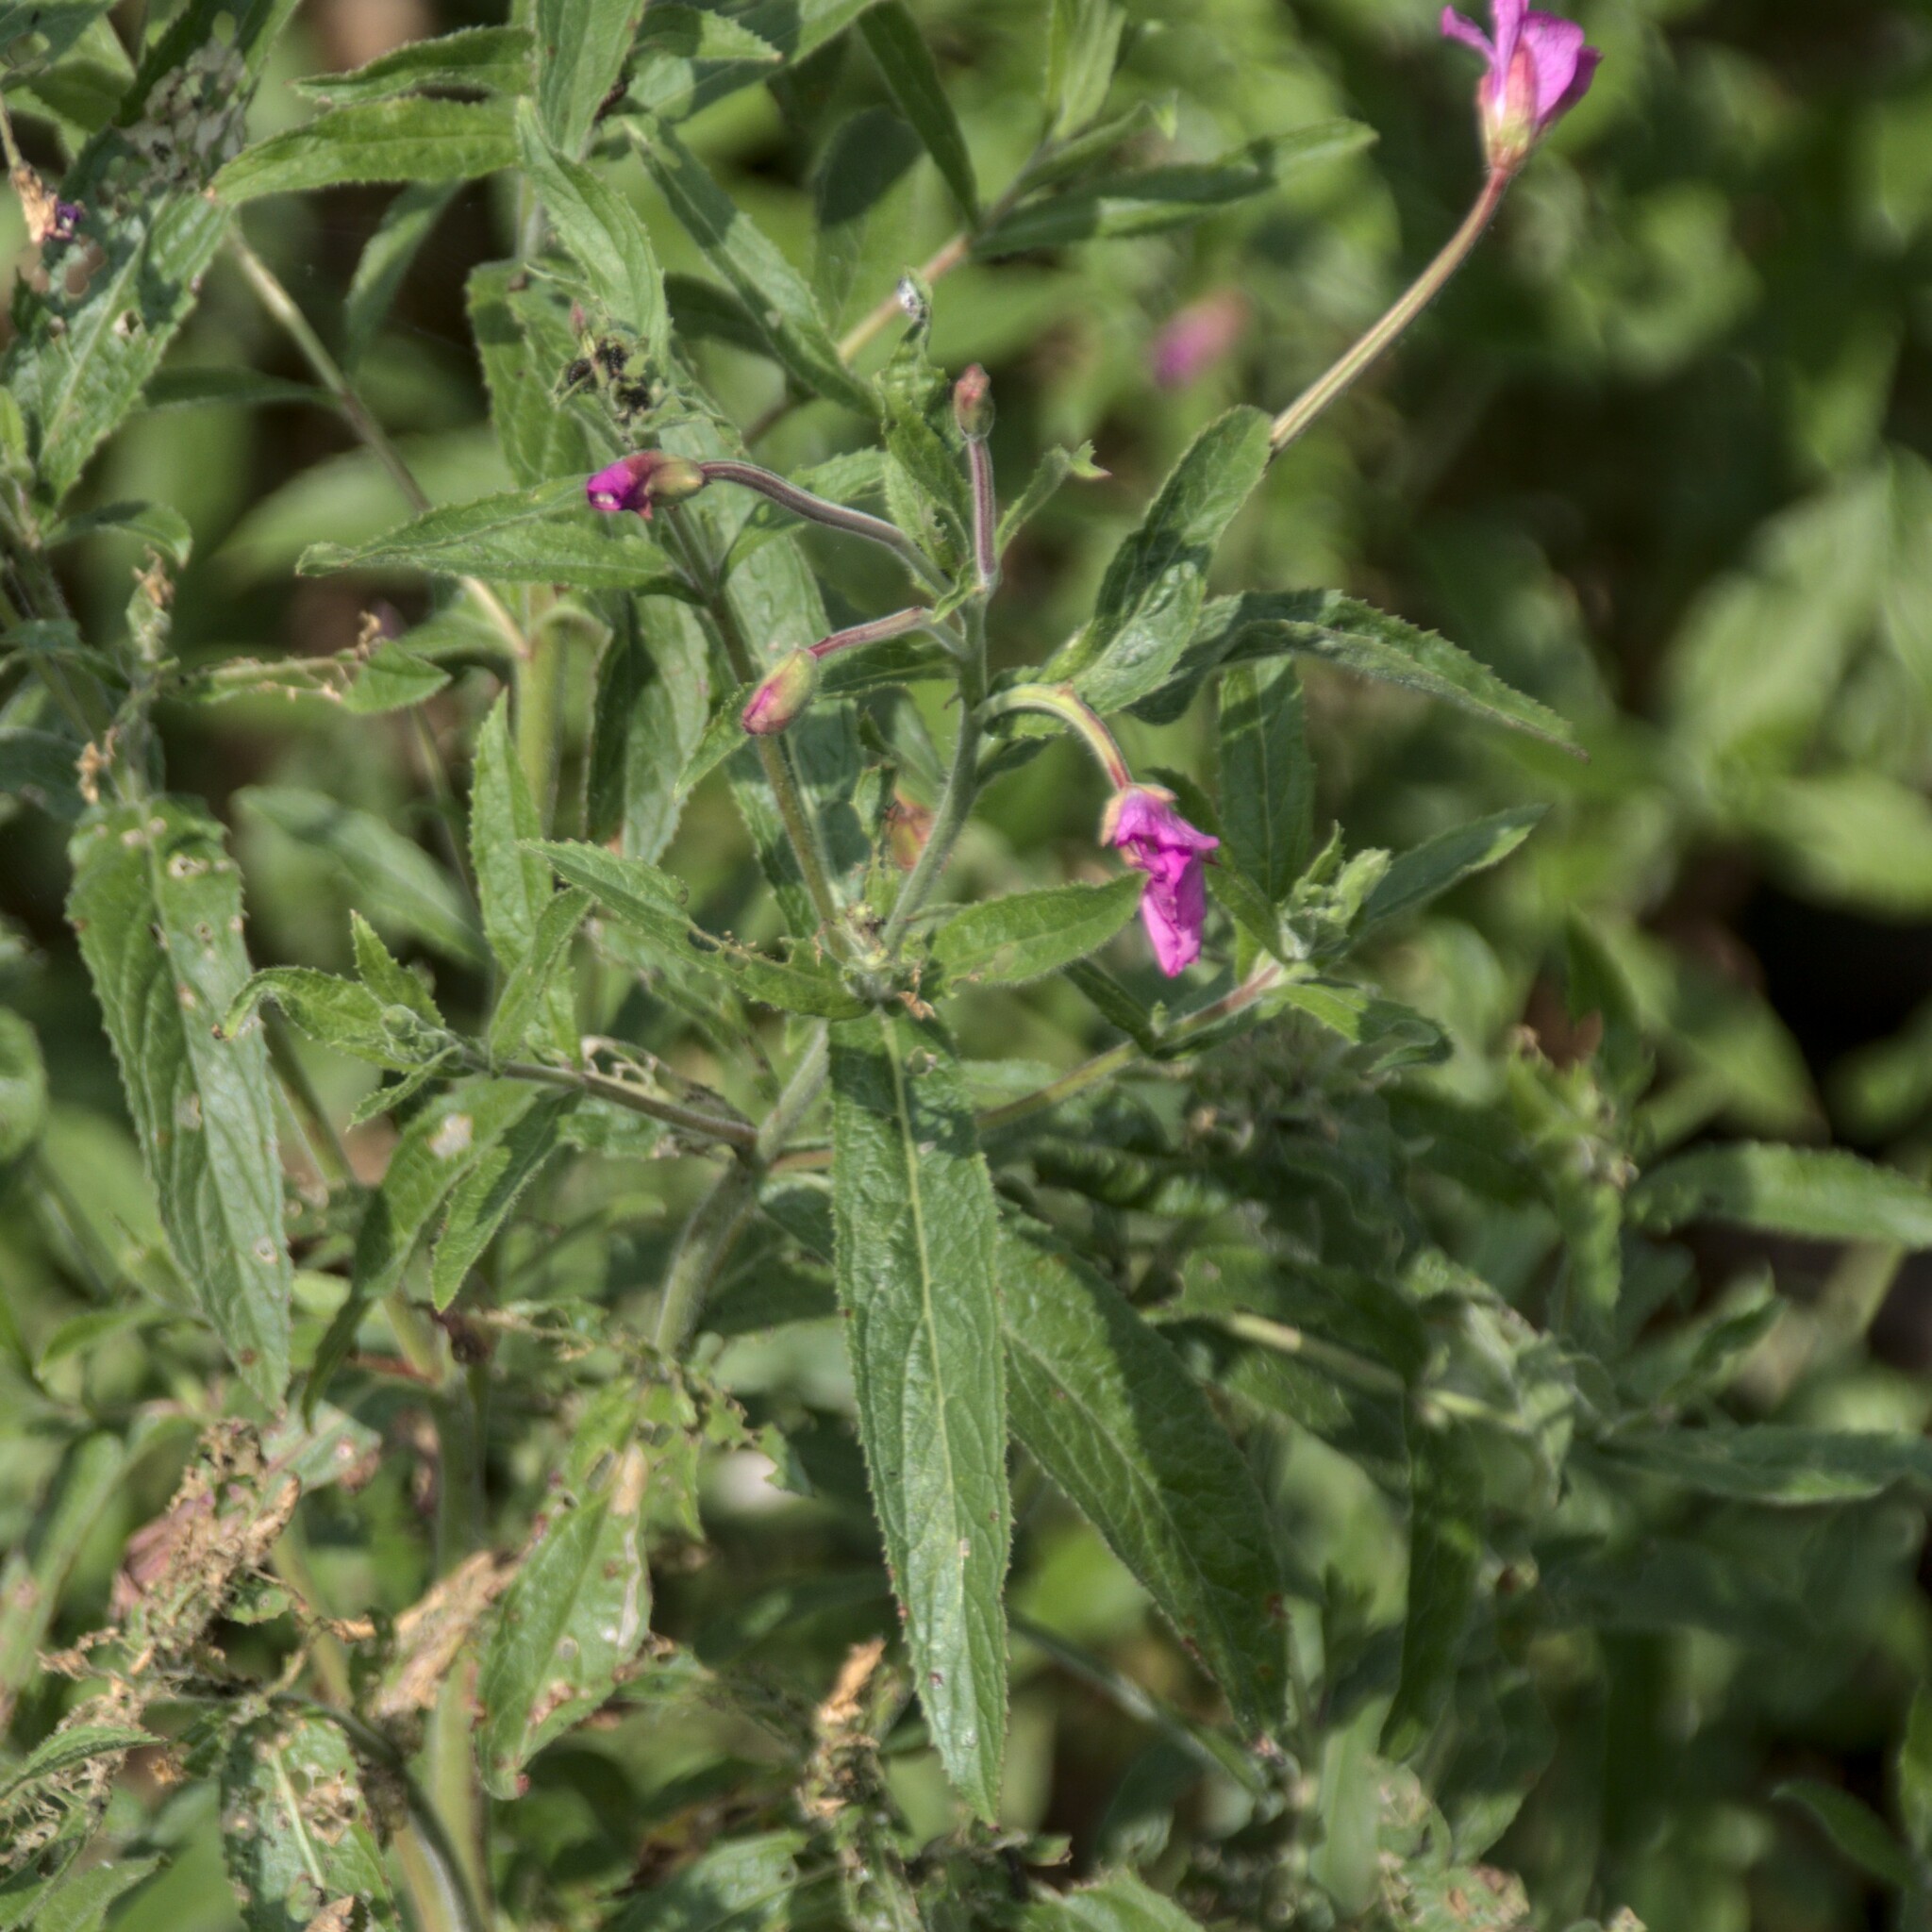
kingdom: Plantae
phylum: Tracheophyta
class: Magnoliopsida
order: Myrtales
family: Onagraceae
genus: Epilobium
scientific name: Epilobium hirsutum
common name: Great willowherb
